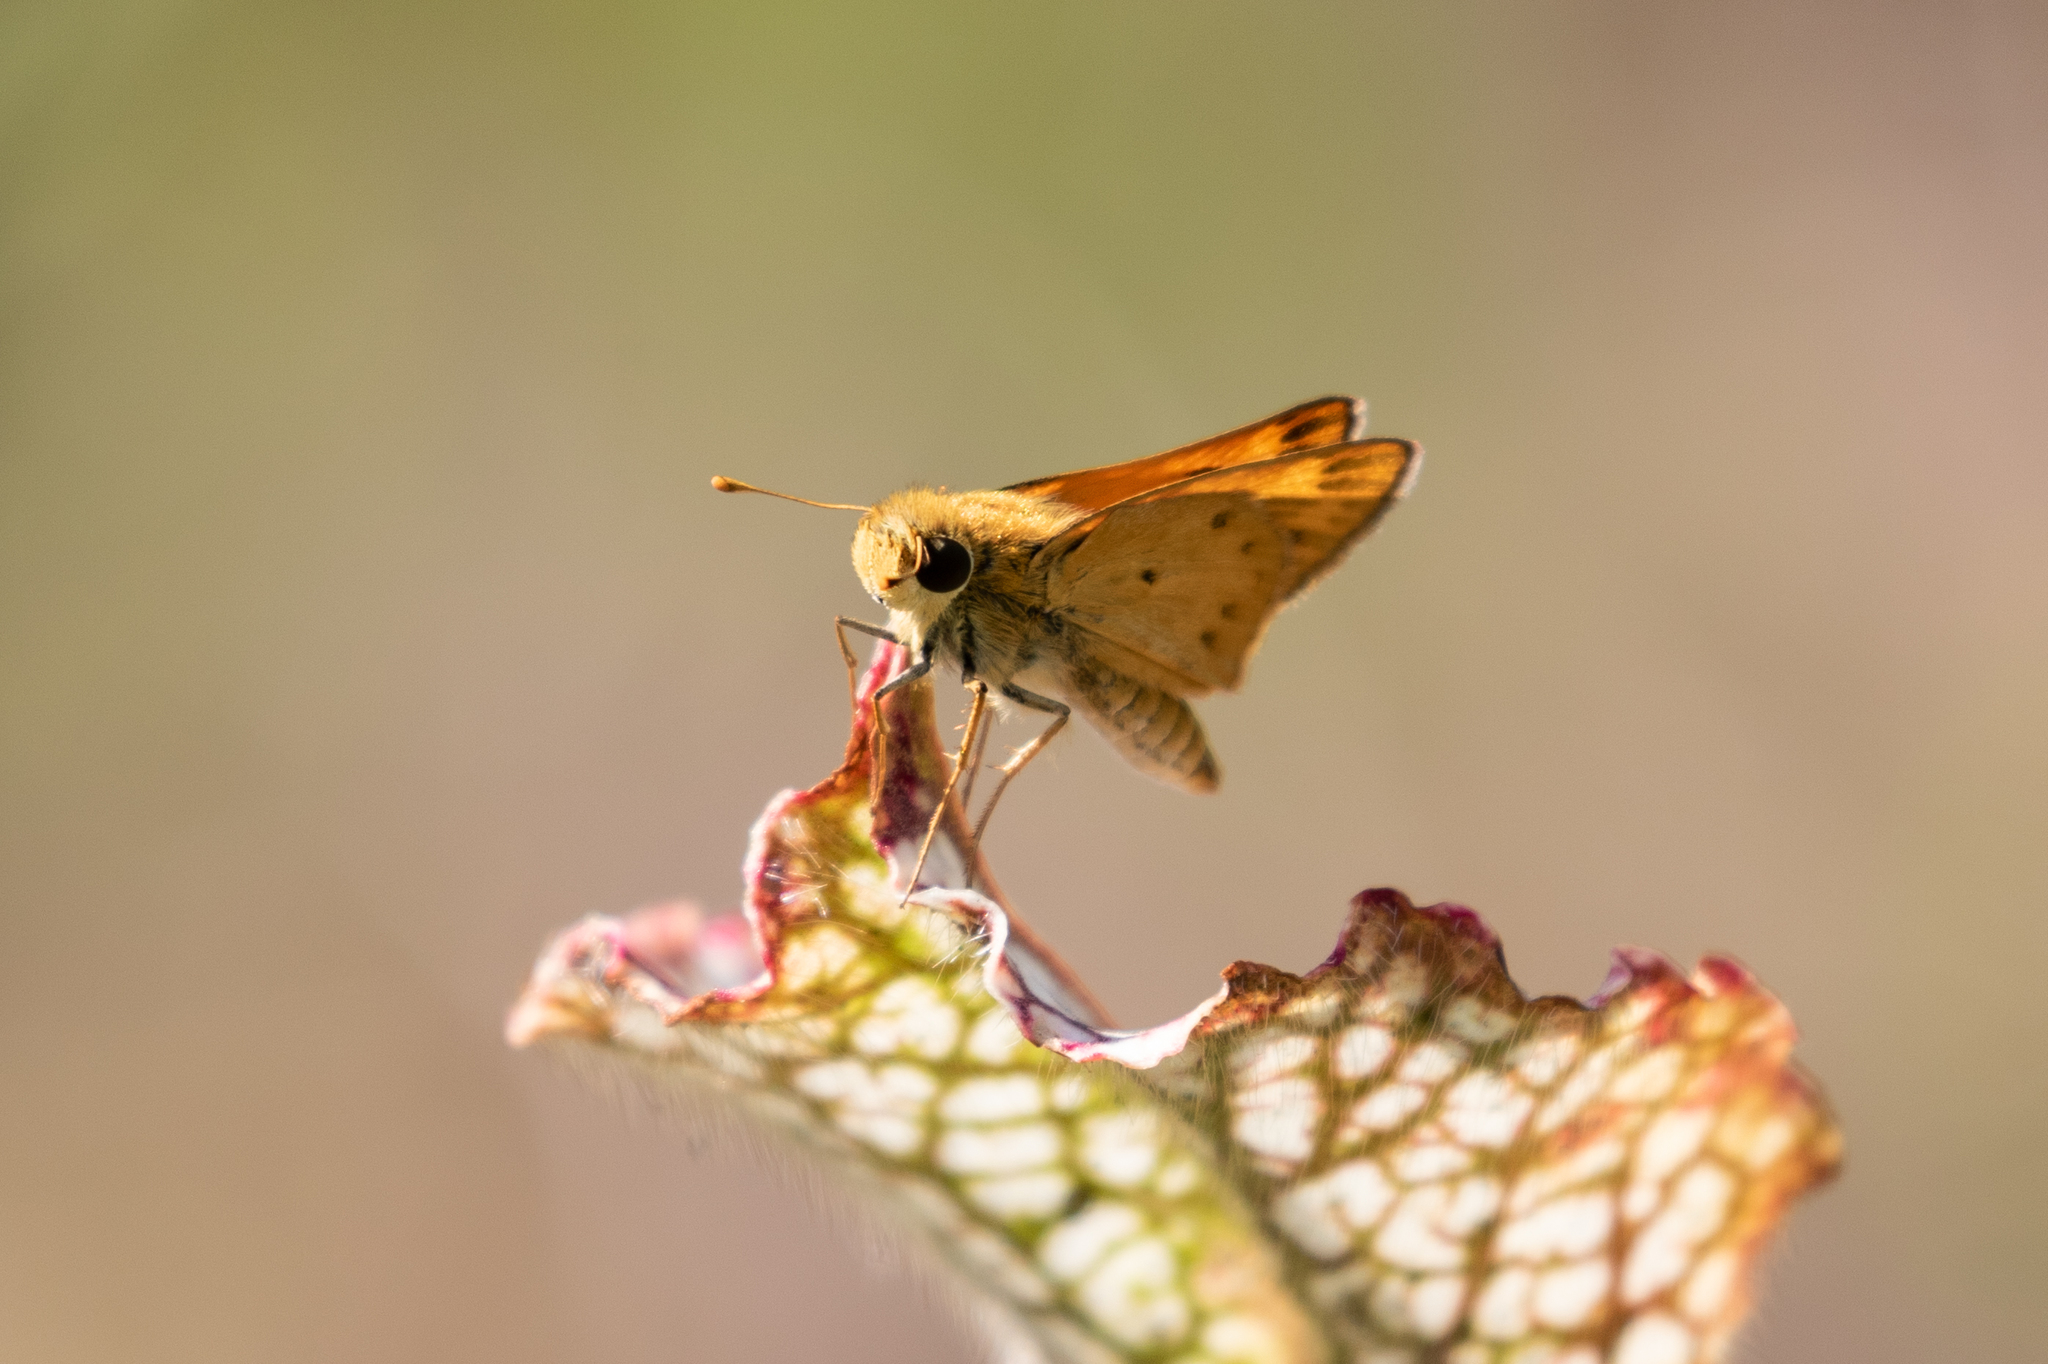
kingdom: Animalia
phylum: Arthropoda
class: Insecta
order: Lepidoptera
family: Hesperiidae
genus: Hylephila
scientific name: Hylephila phyleus
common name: Fiery skipper
